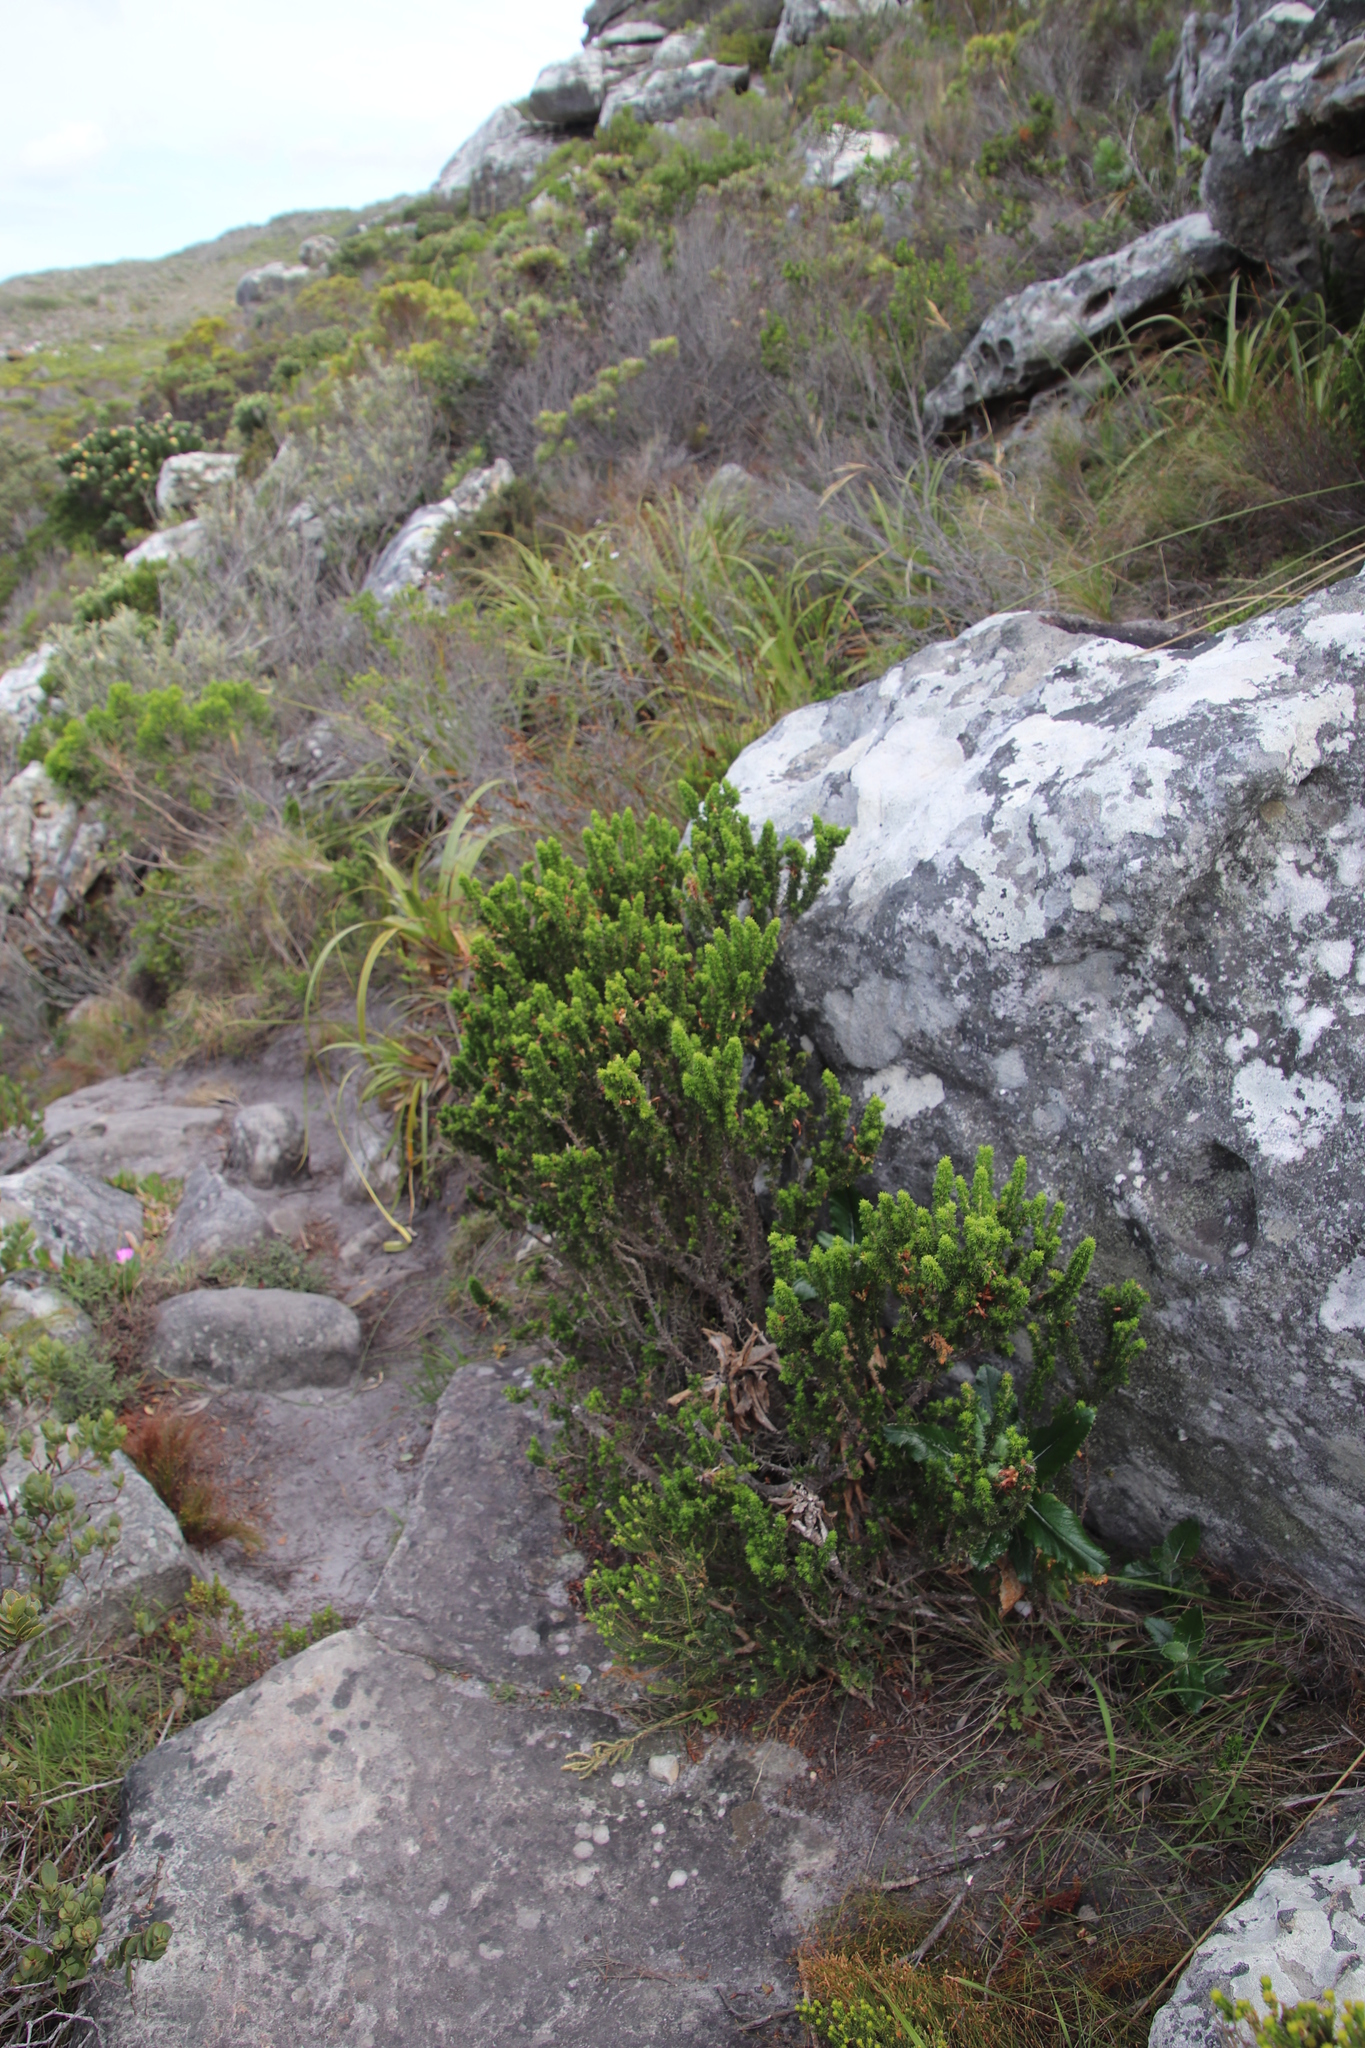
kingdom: Plantae
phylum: Tracheophyta
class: Magnoliopsida
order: Ericales
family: Ericaceae
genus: Erica
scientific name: Erica coccinea
